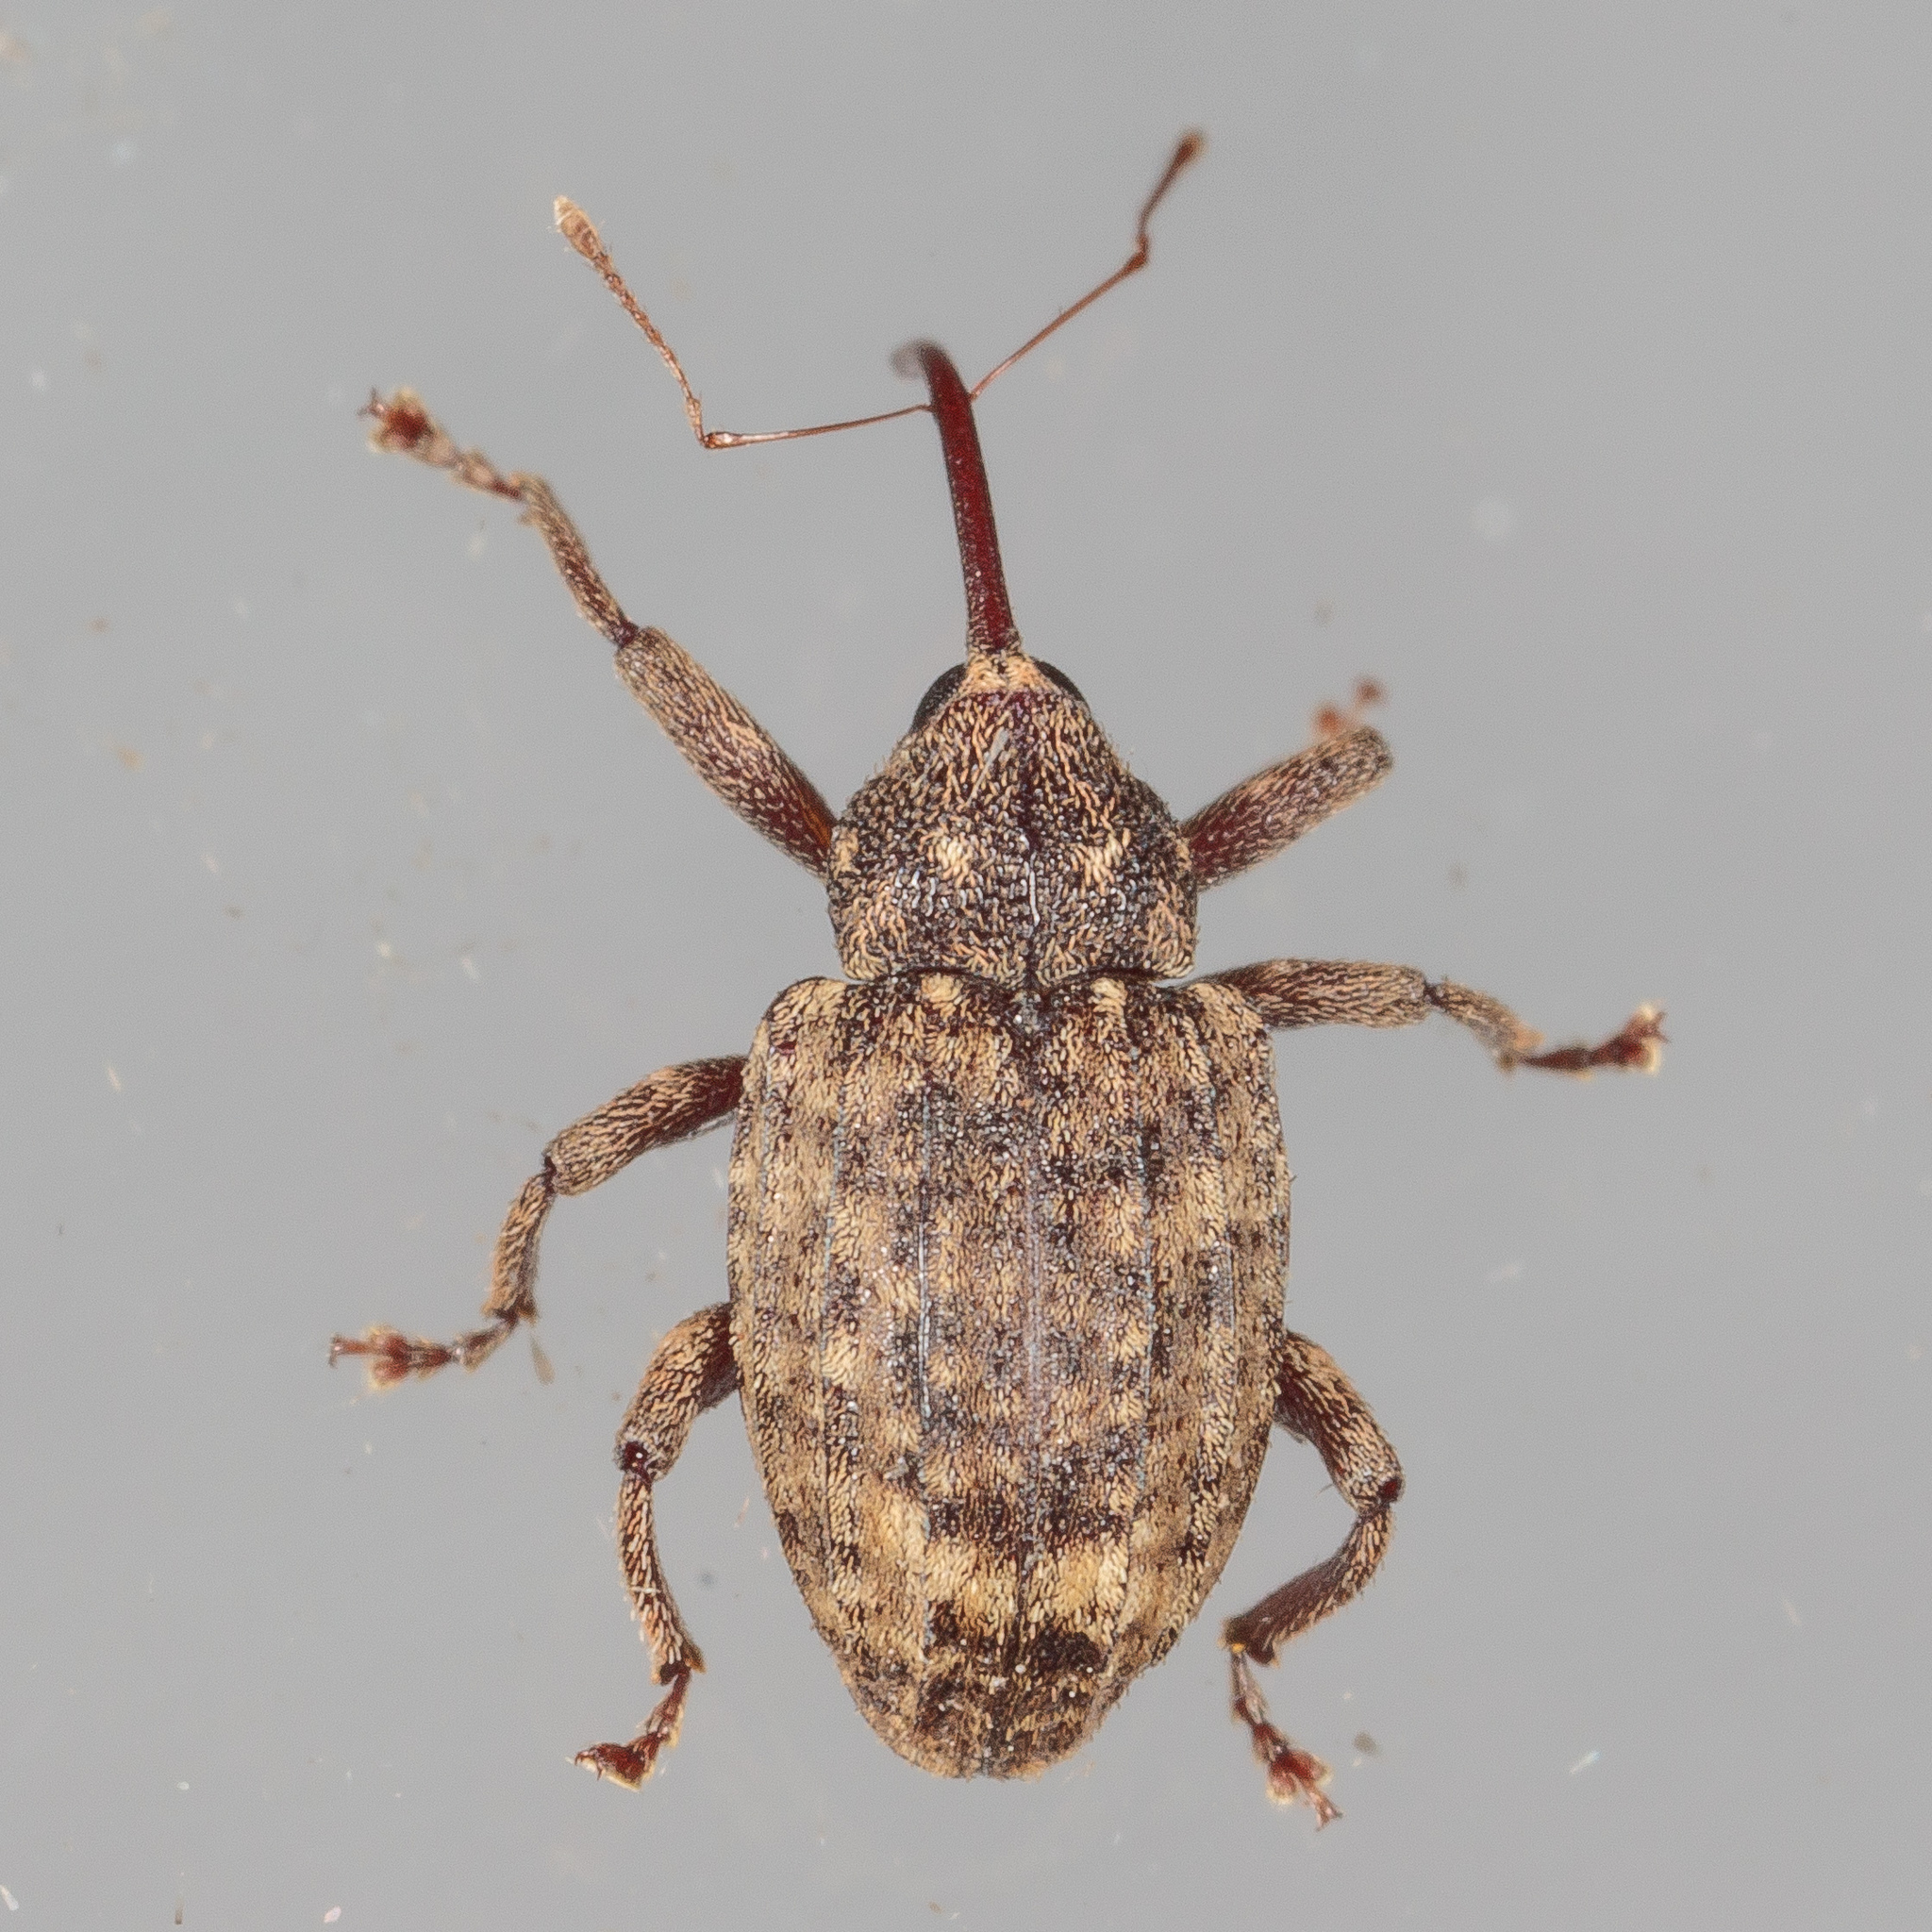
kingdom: Animalia
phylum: Arthropoda
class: Insecta
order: Coleoptera
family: Curculionidae
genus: Conotrachelus
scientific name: Conotrachelus naso
